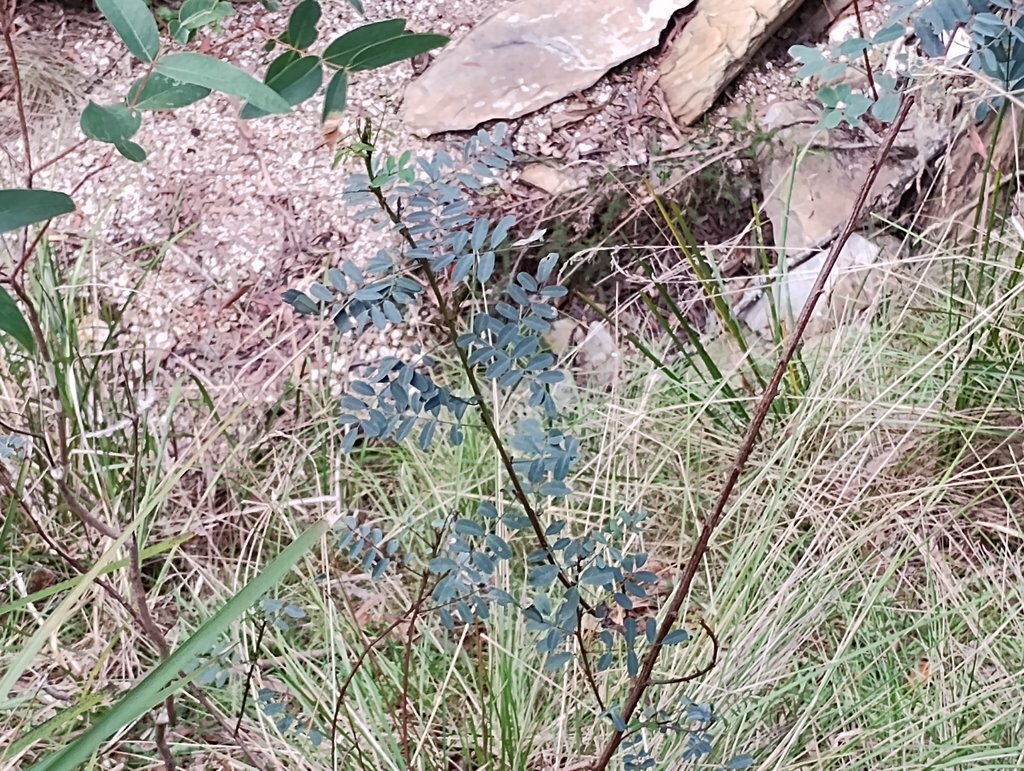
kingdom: Plantae
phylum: Tracheophyta
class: Magnoliopsida
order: Fabales
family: Fabaceae
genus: Indigofera
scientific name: Indigofera australis
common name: Australian indigo
